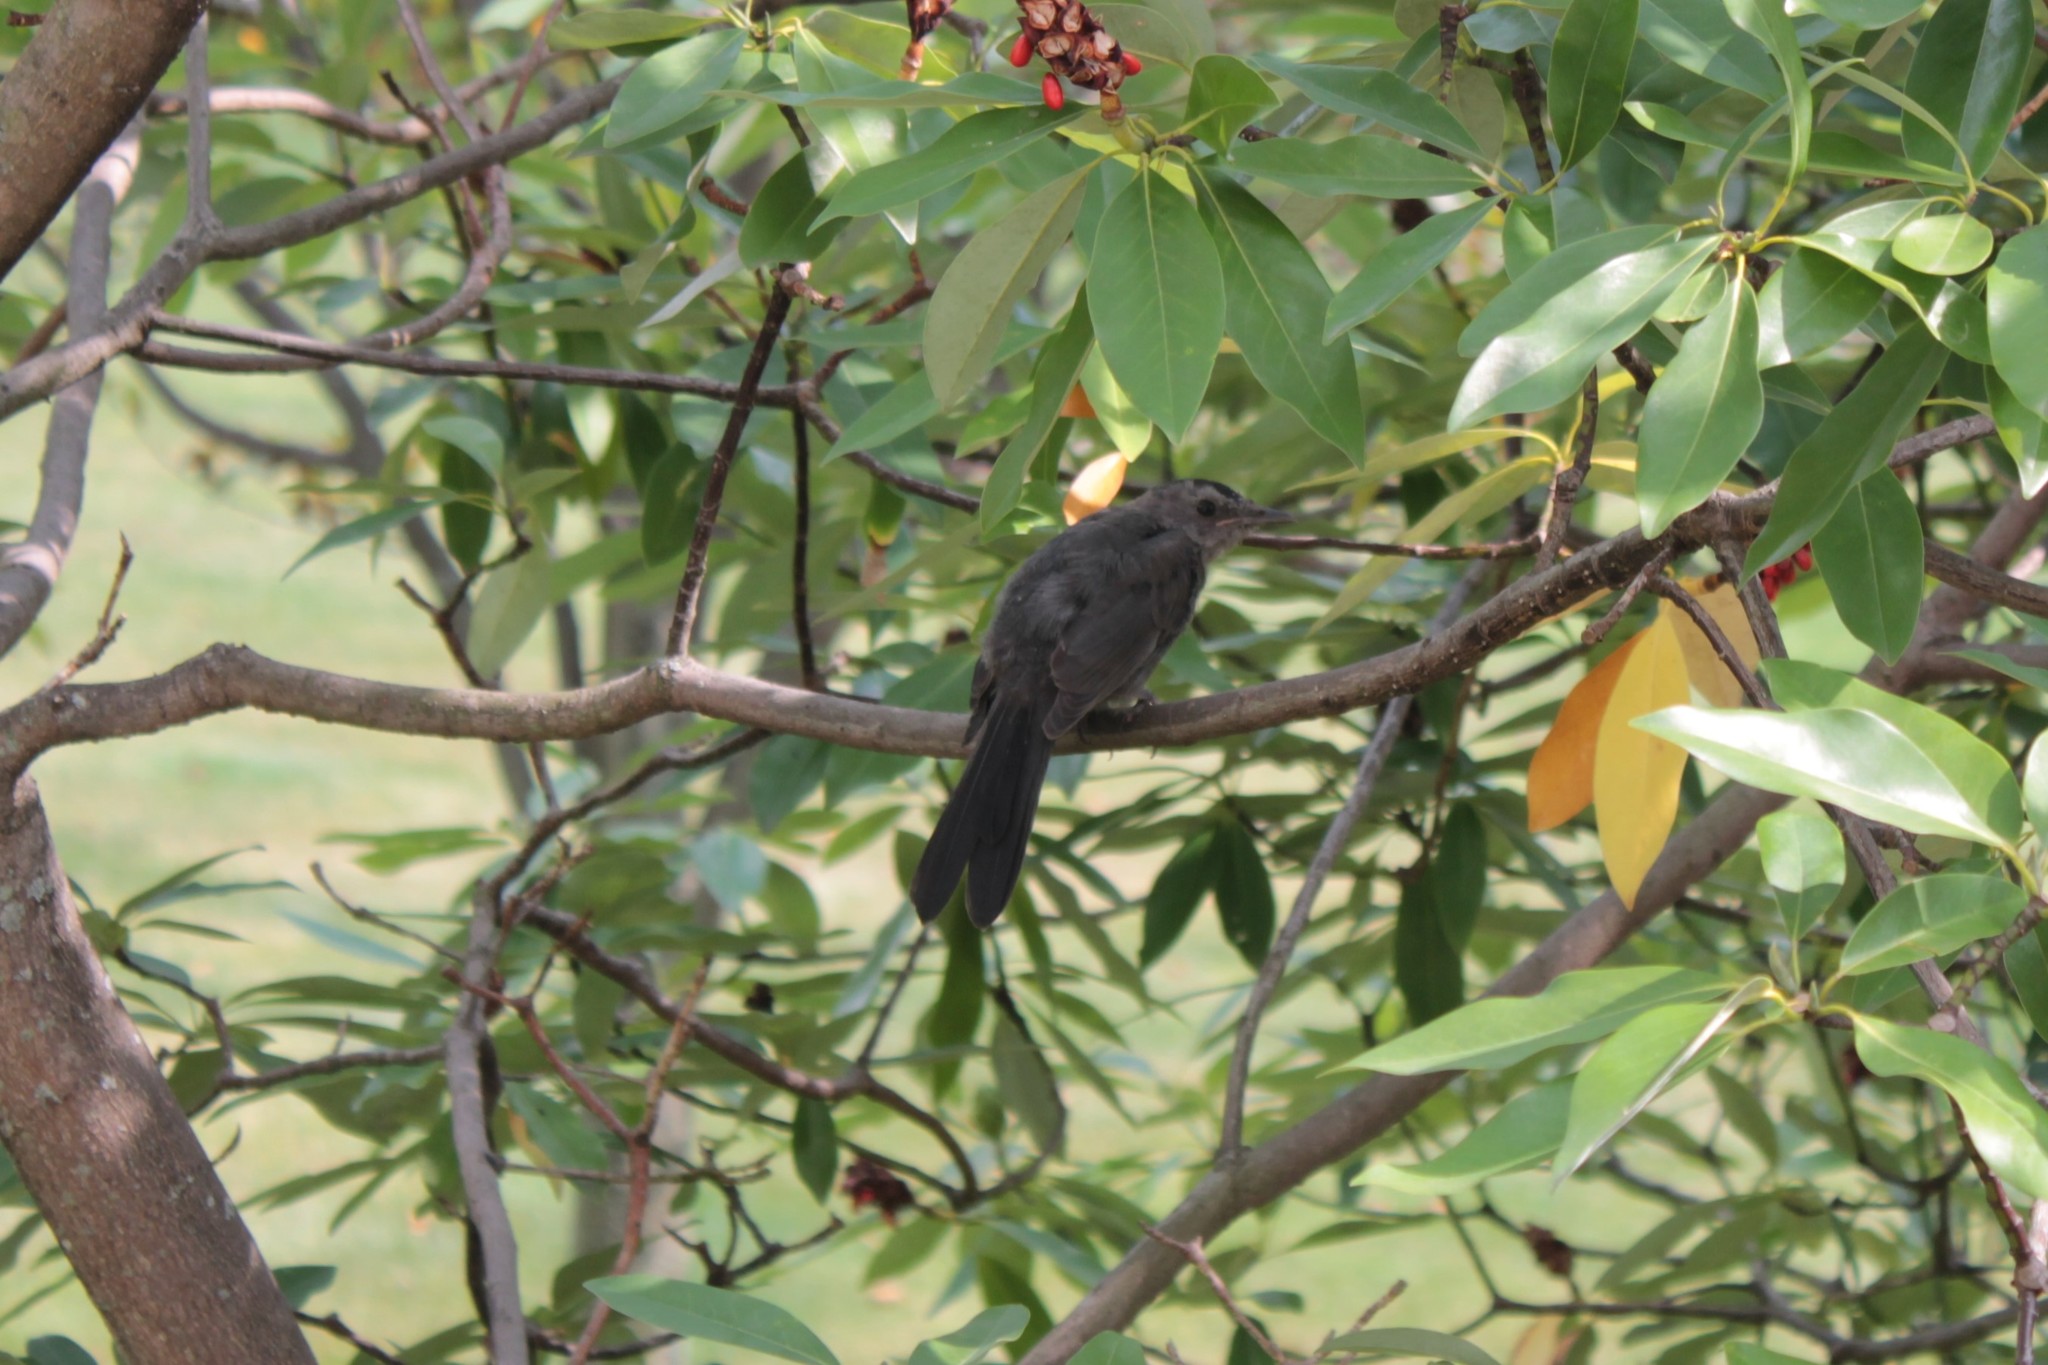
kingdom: Animalia
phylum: Chordata
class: Aves
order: Passeriformes
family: Mimidae
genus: Dumetella
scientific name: Dumetella carolinensis
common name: Gray catbird
